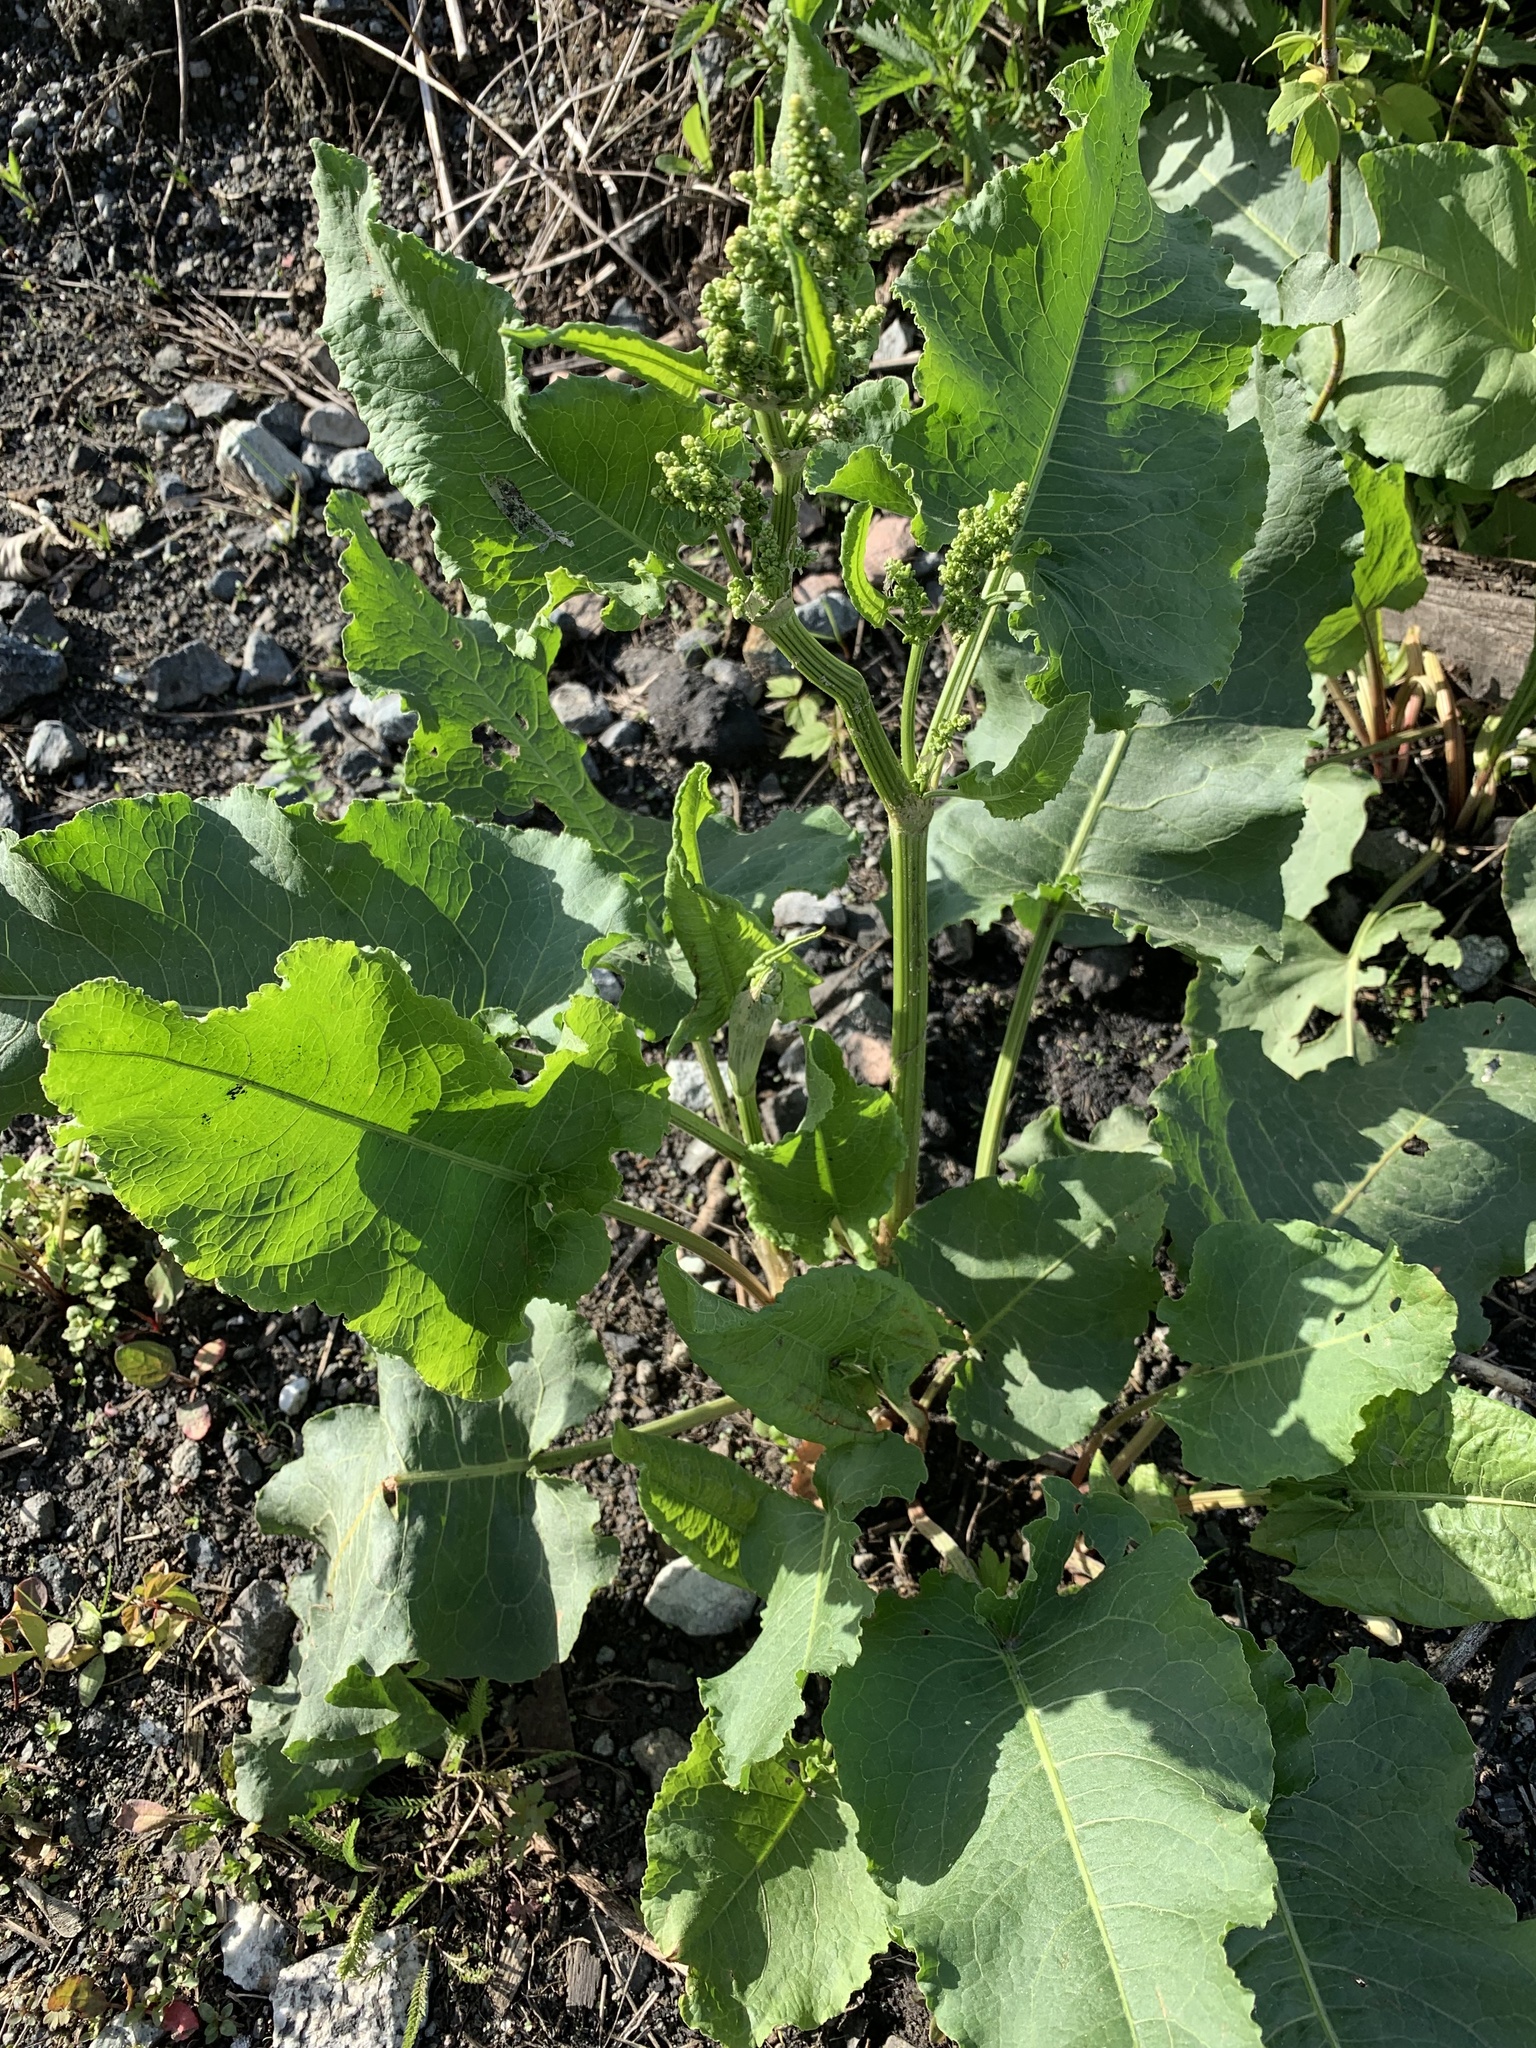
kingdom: Plantae
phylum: Tracheophyta
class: Magnoliopsida
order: Caryophyllales
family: Polygonaceae
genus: Rumex
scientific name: Rumex confertus
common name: Russian dock
